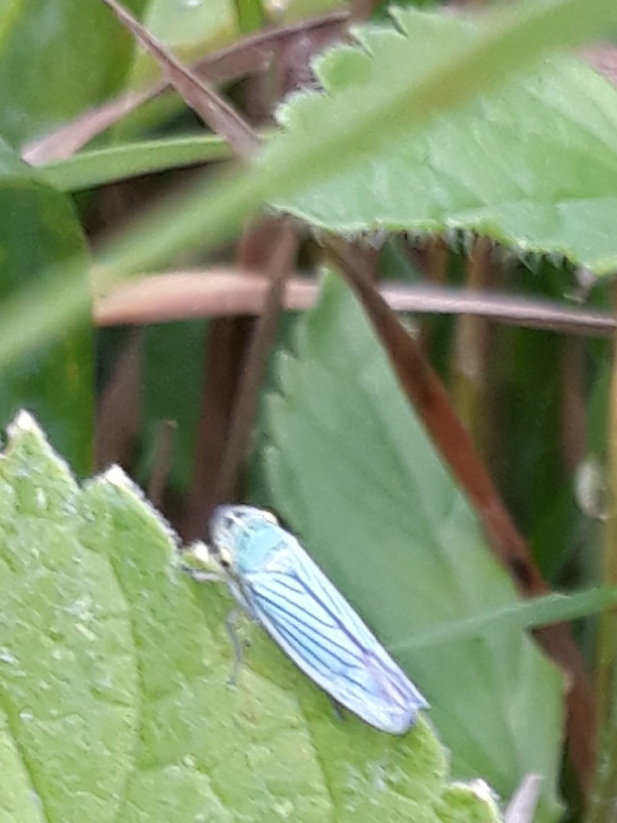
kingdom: Animalia
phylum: Arthropoda
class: Insecta
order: Hemiptera
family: Cicadellidae
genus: Cicadella
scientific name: Cicadella viridis
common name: Leafhopper
